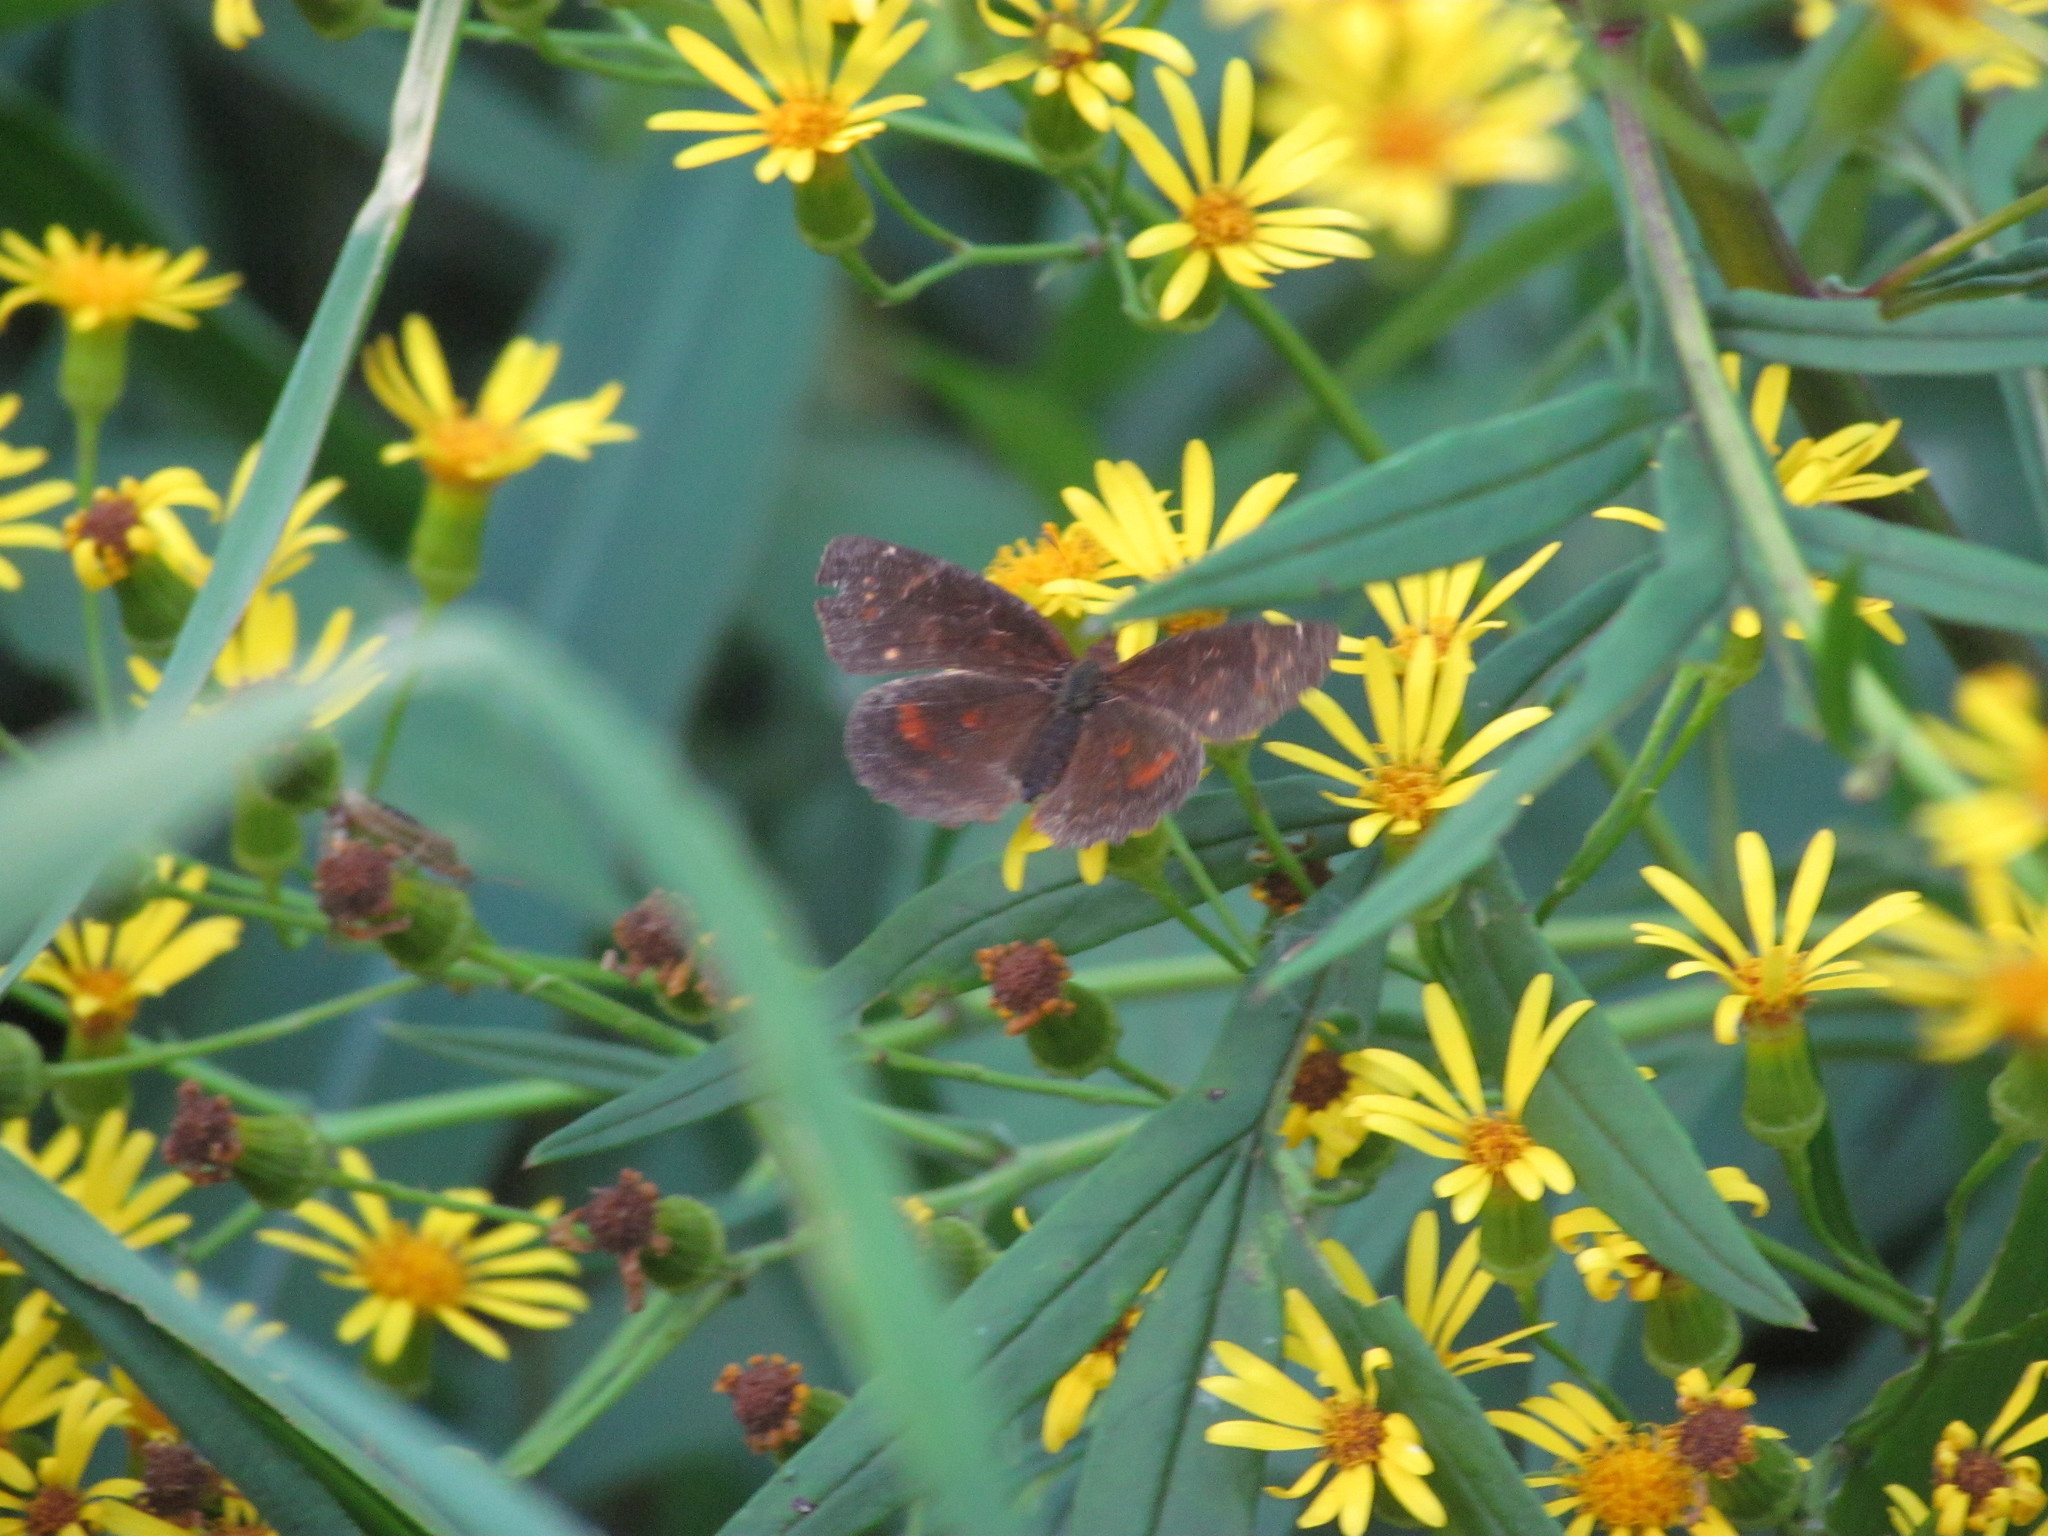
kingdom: Animalia
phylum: Arthropoda
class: Insecta
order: Lepidoptera
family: Nymphalidae
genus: Ortilia
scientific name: Ortilia velica
